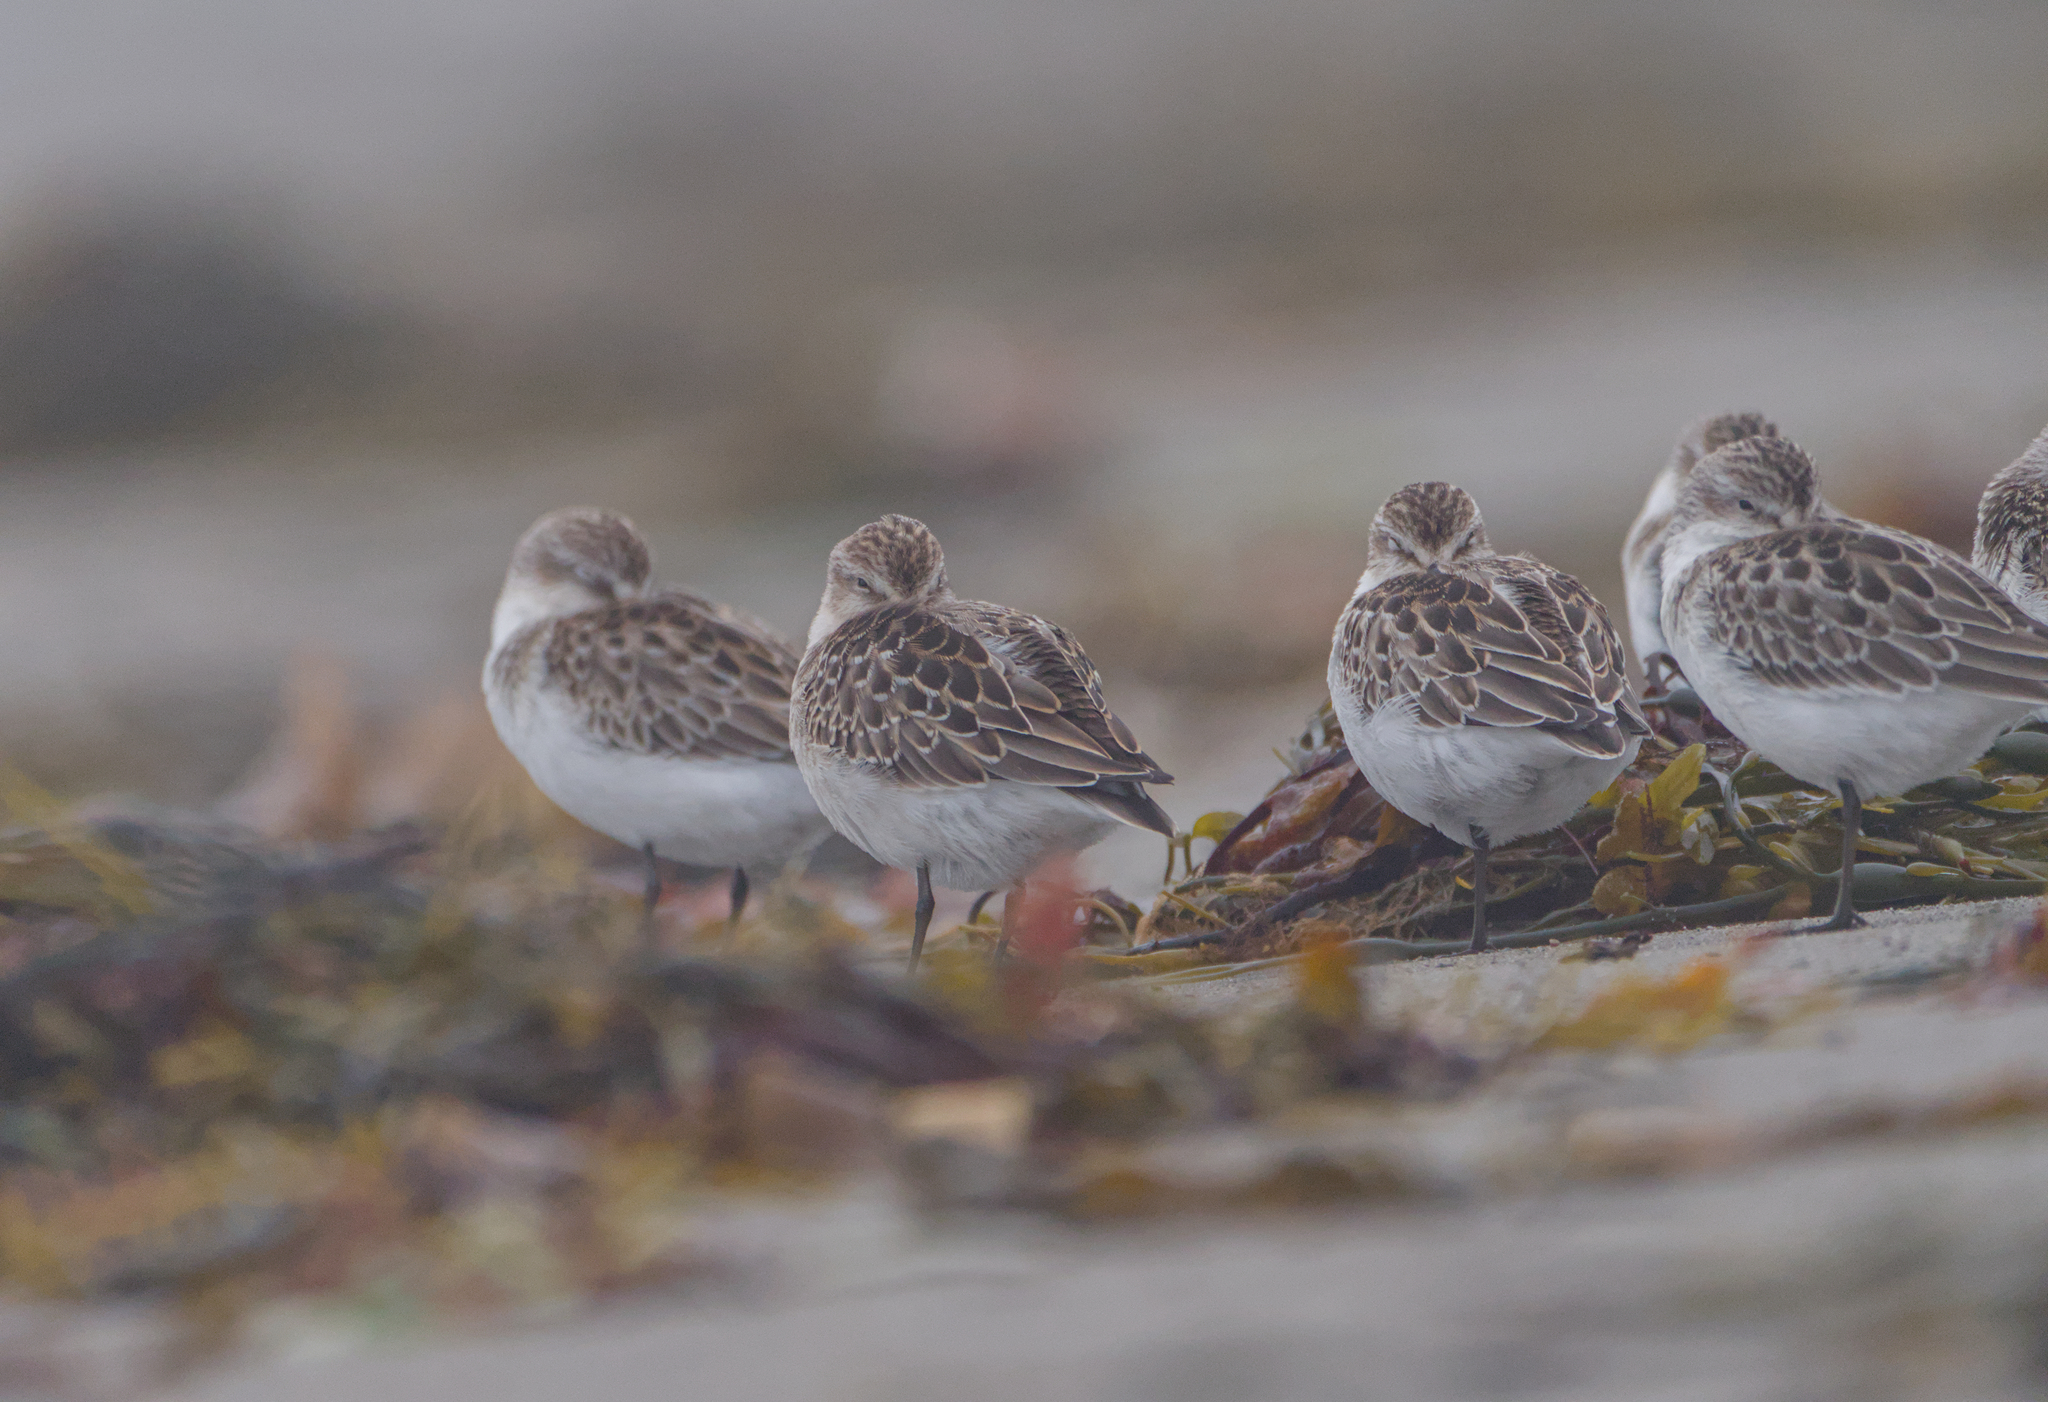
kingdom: Animalia
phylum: Chordata
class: Aves
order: Charadriiformes
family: Scolopacidae
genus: Calidris
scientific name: Calidris pusilla
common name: Semipalmated sandpiper
